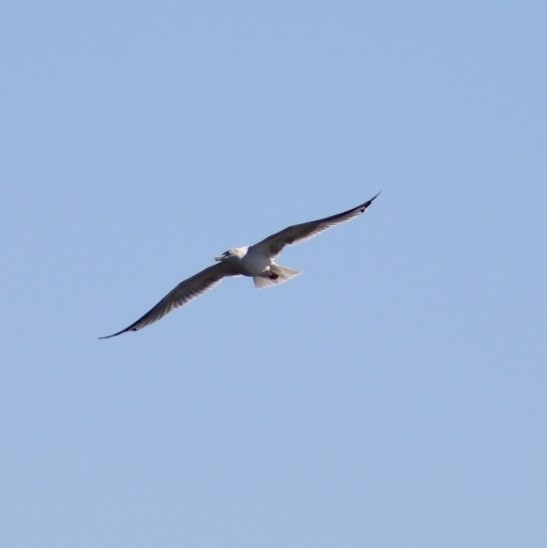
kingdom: Animalia
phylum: Chordata
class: Aves
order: Charadriiformes
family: Laridae
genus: Larus
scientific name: Larus californicus
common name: California gull
